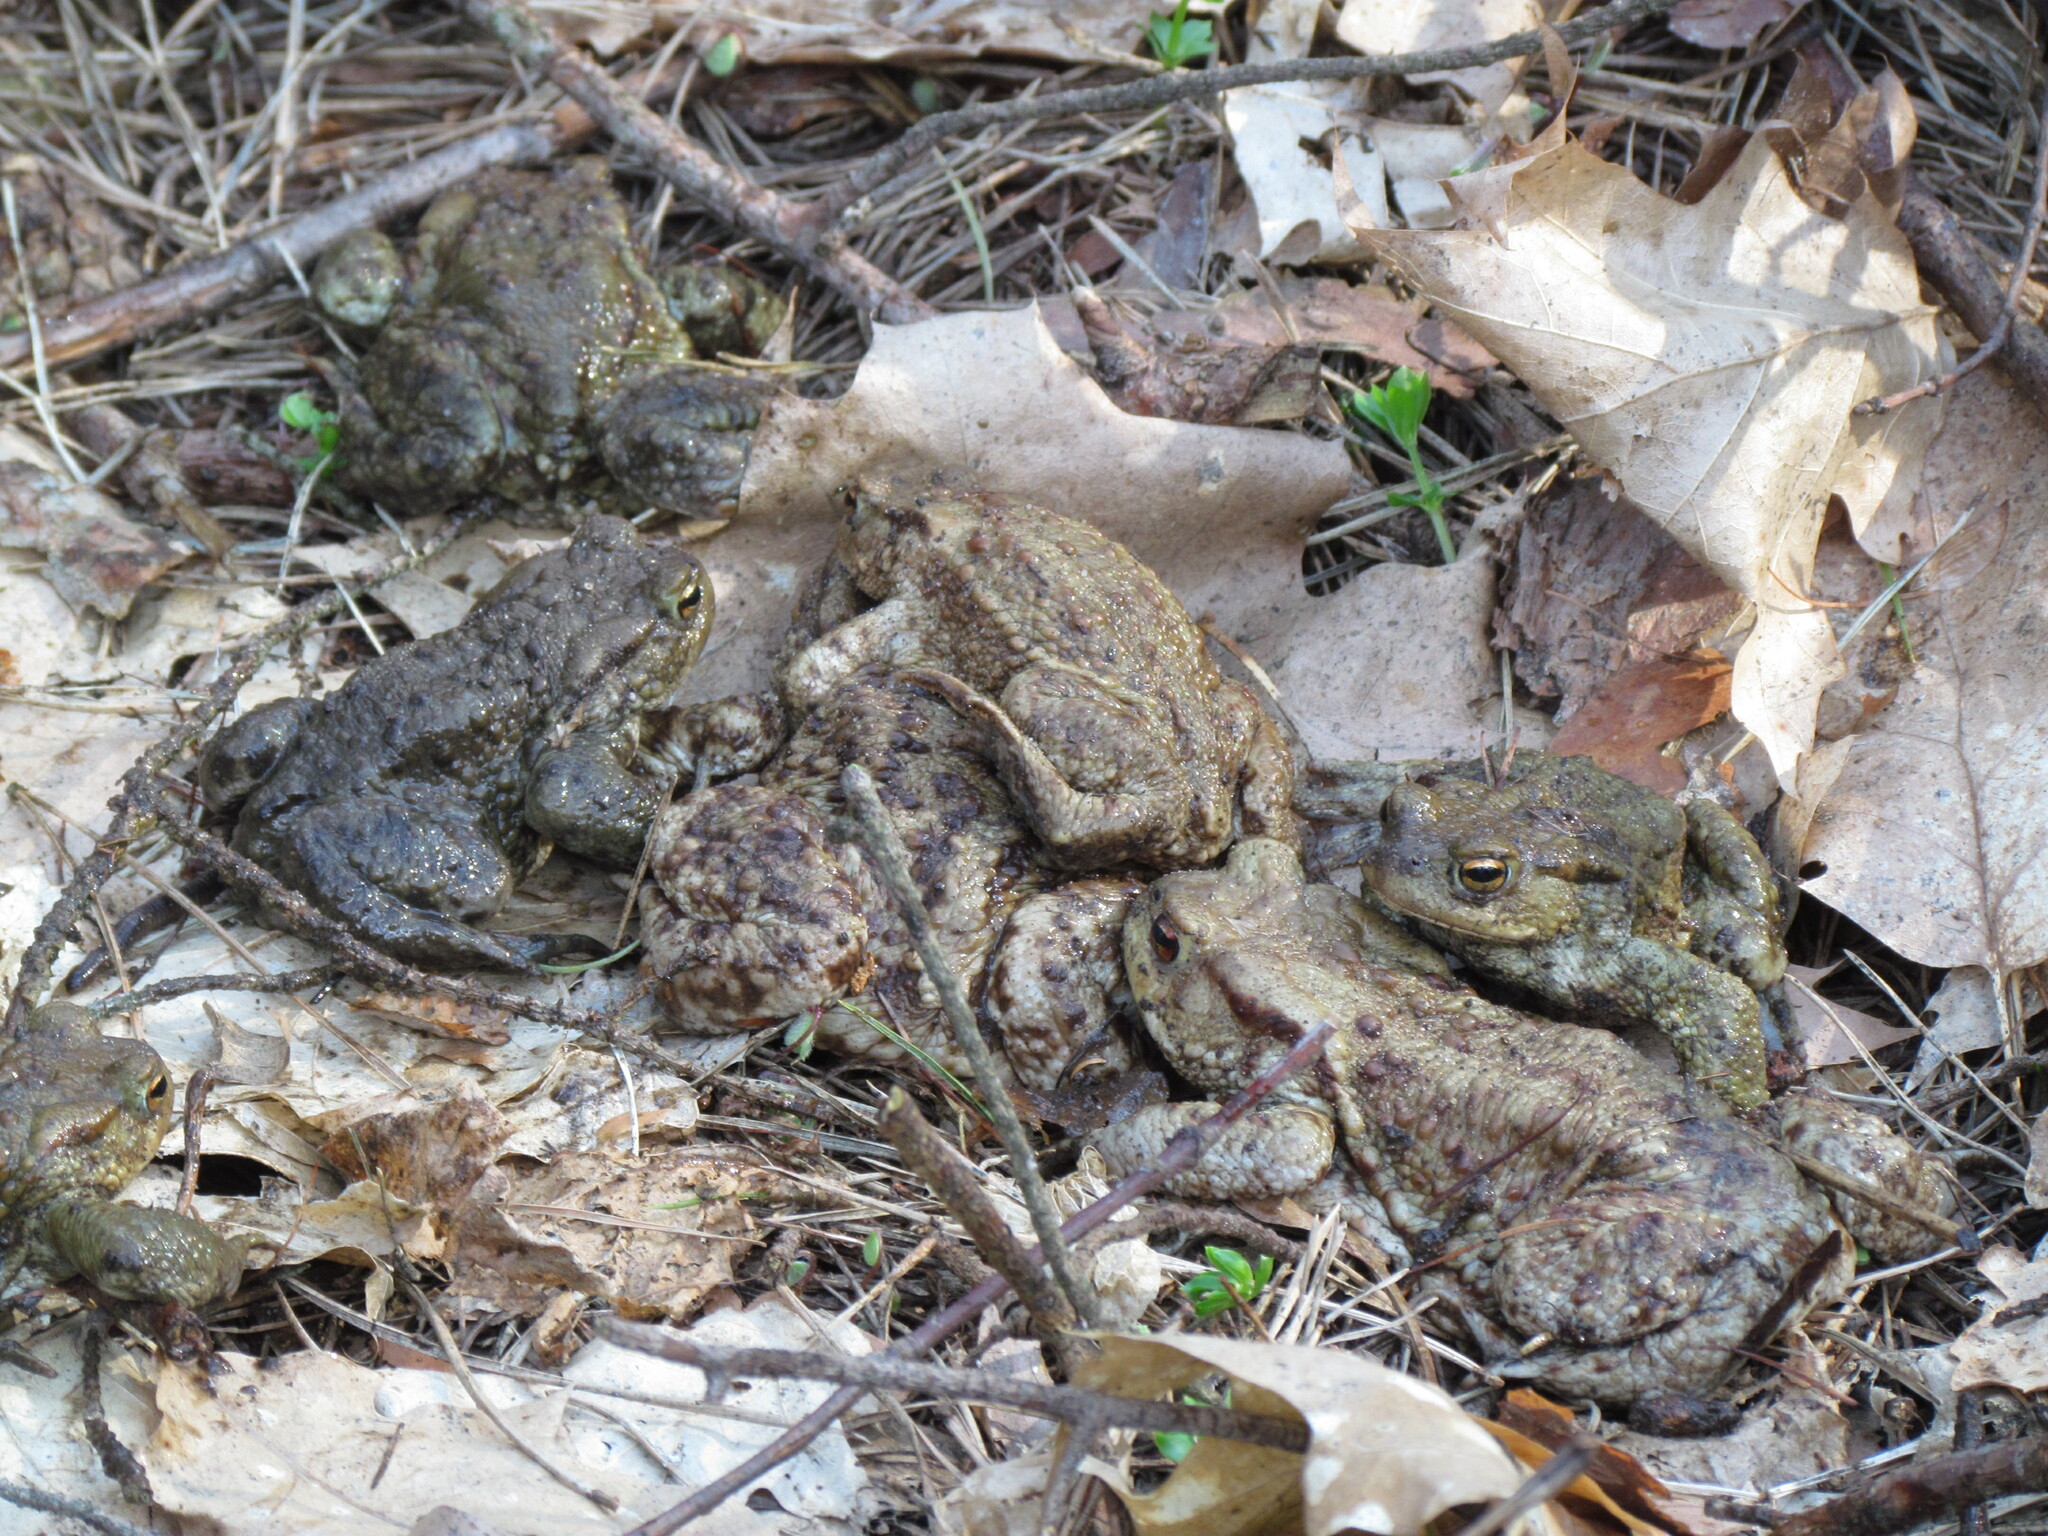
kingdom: Animalia
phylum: Chordata
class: Amphibia
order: Anura
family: Bufonidae
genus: Bufo
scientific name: Bufo bufo
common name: Common toad
